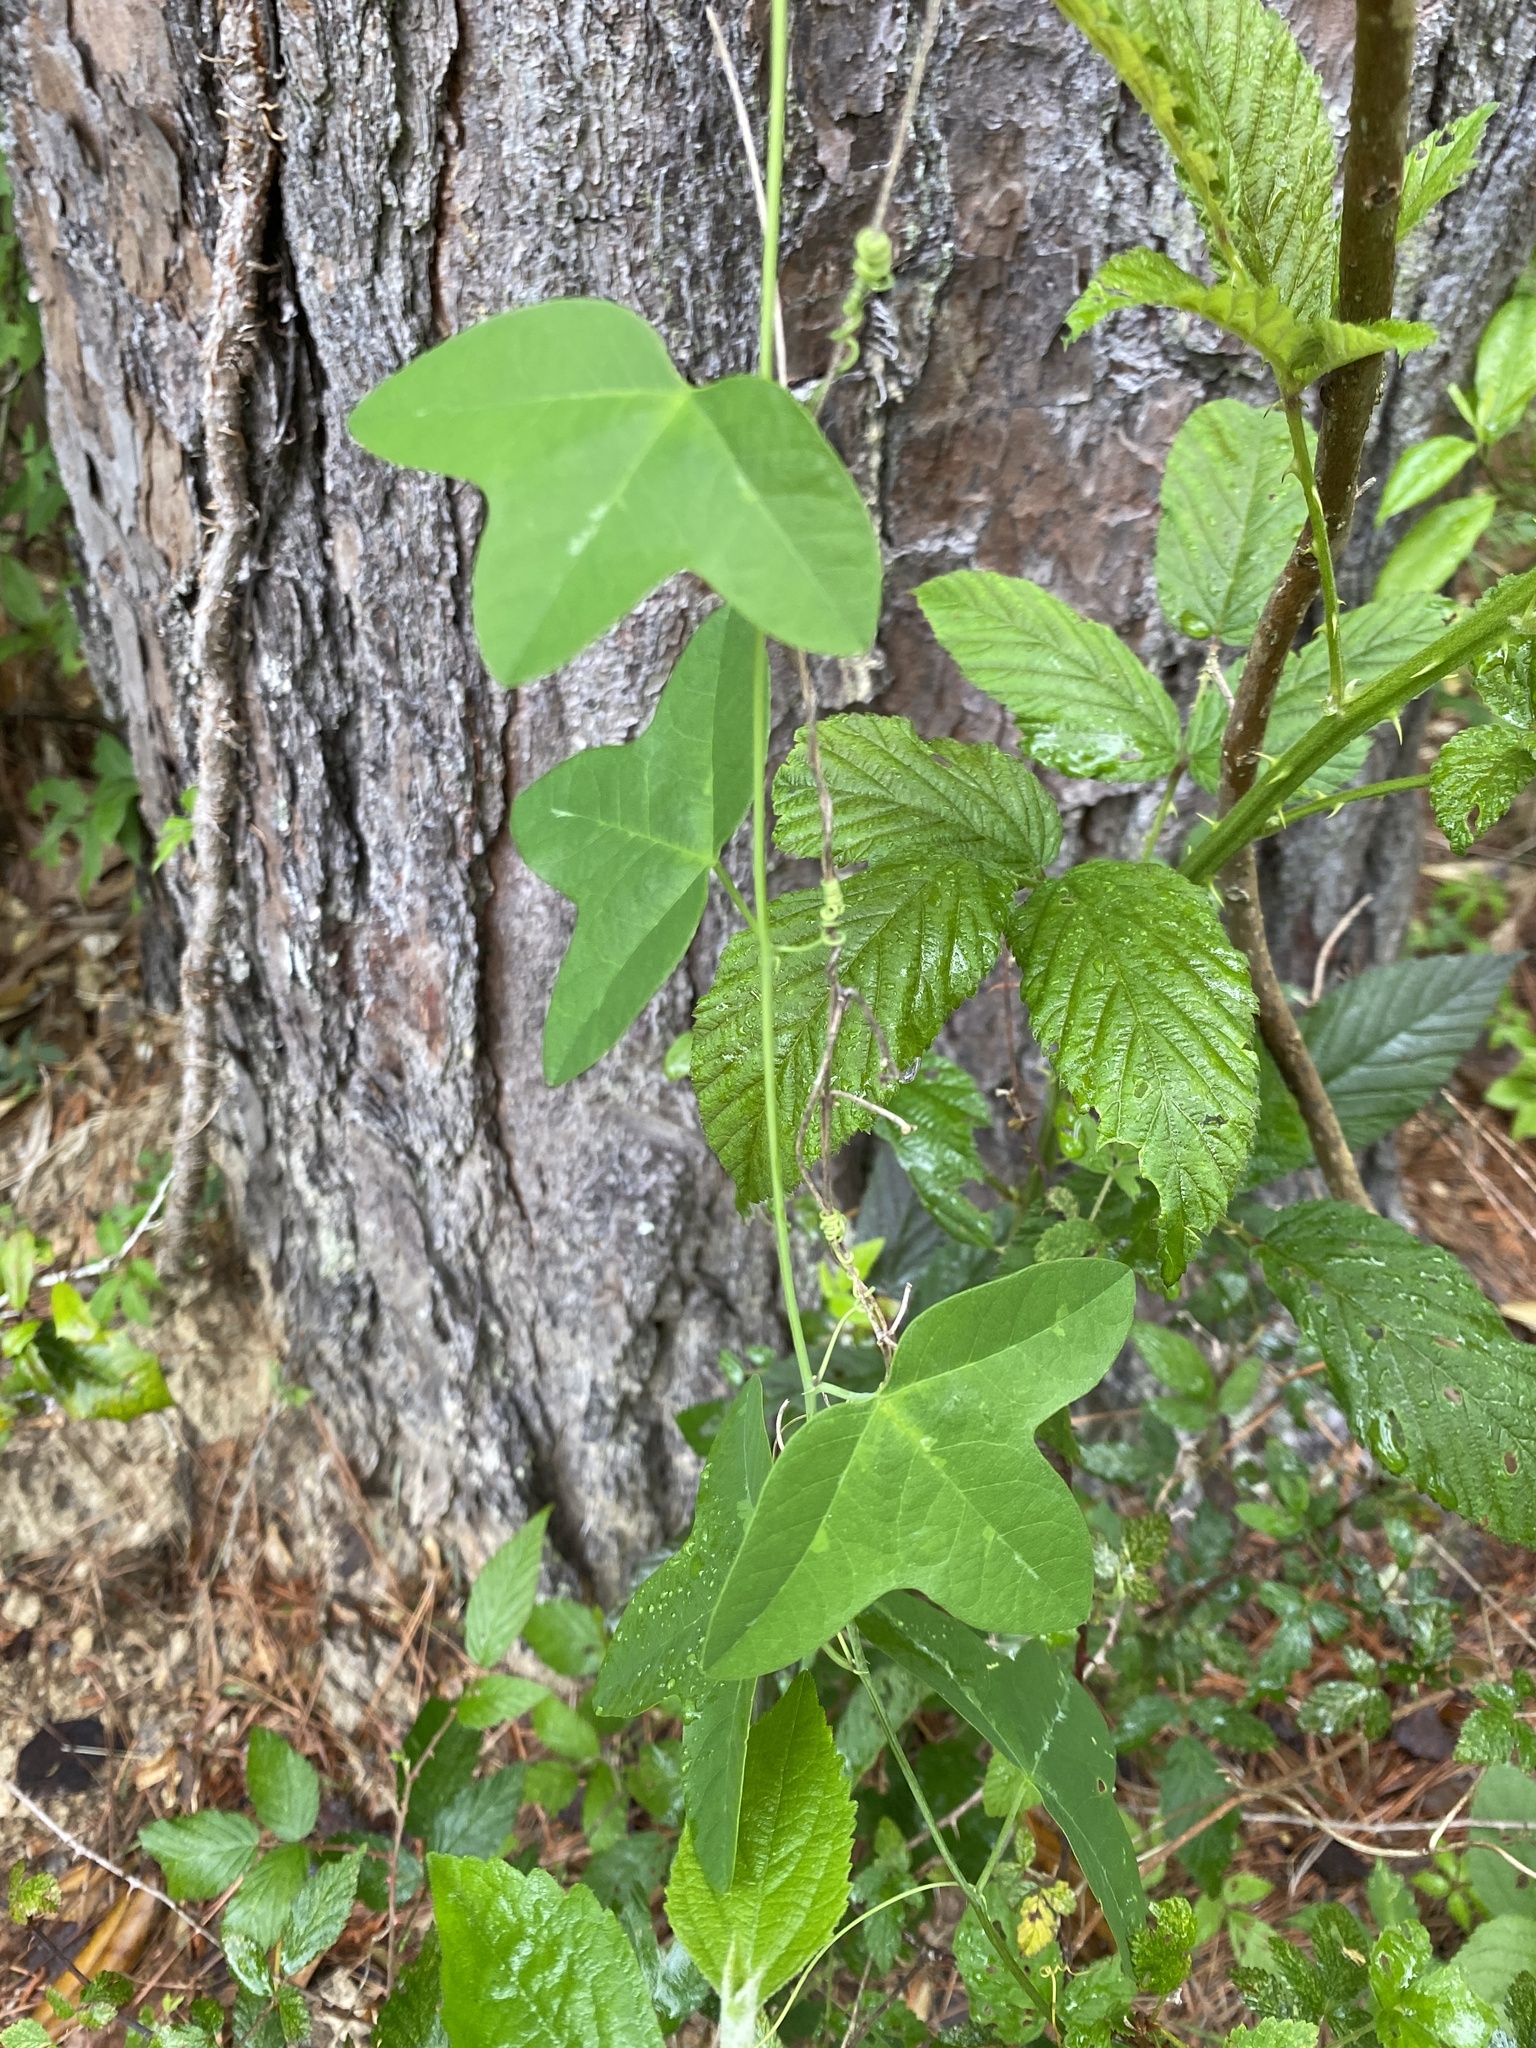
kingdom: Plantae
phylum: Tracheophyta
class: Magnoliopsida
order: Malpighiales
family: Passifloraceae
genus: Passiflora
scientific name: Passiflora lutea
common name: Yellow passionflower
